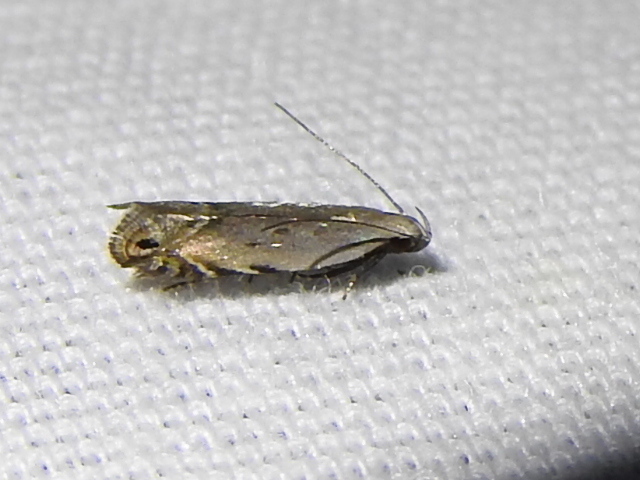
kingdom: Animalia
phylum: Arthropoda
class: Insecta
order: Lepidoptera
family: Gelechiidae
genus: Battaristis
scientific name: Battaristis concinnusella
